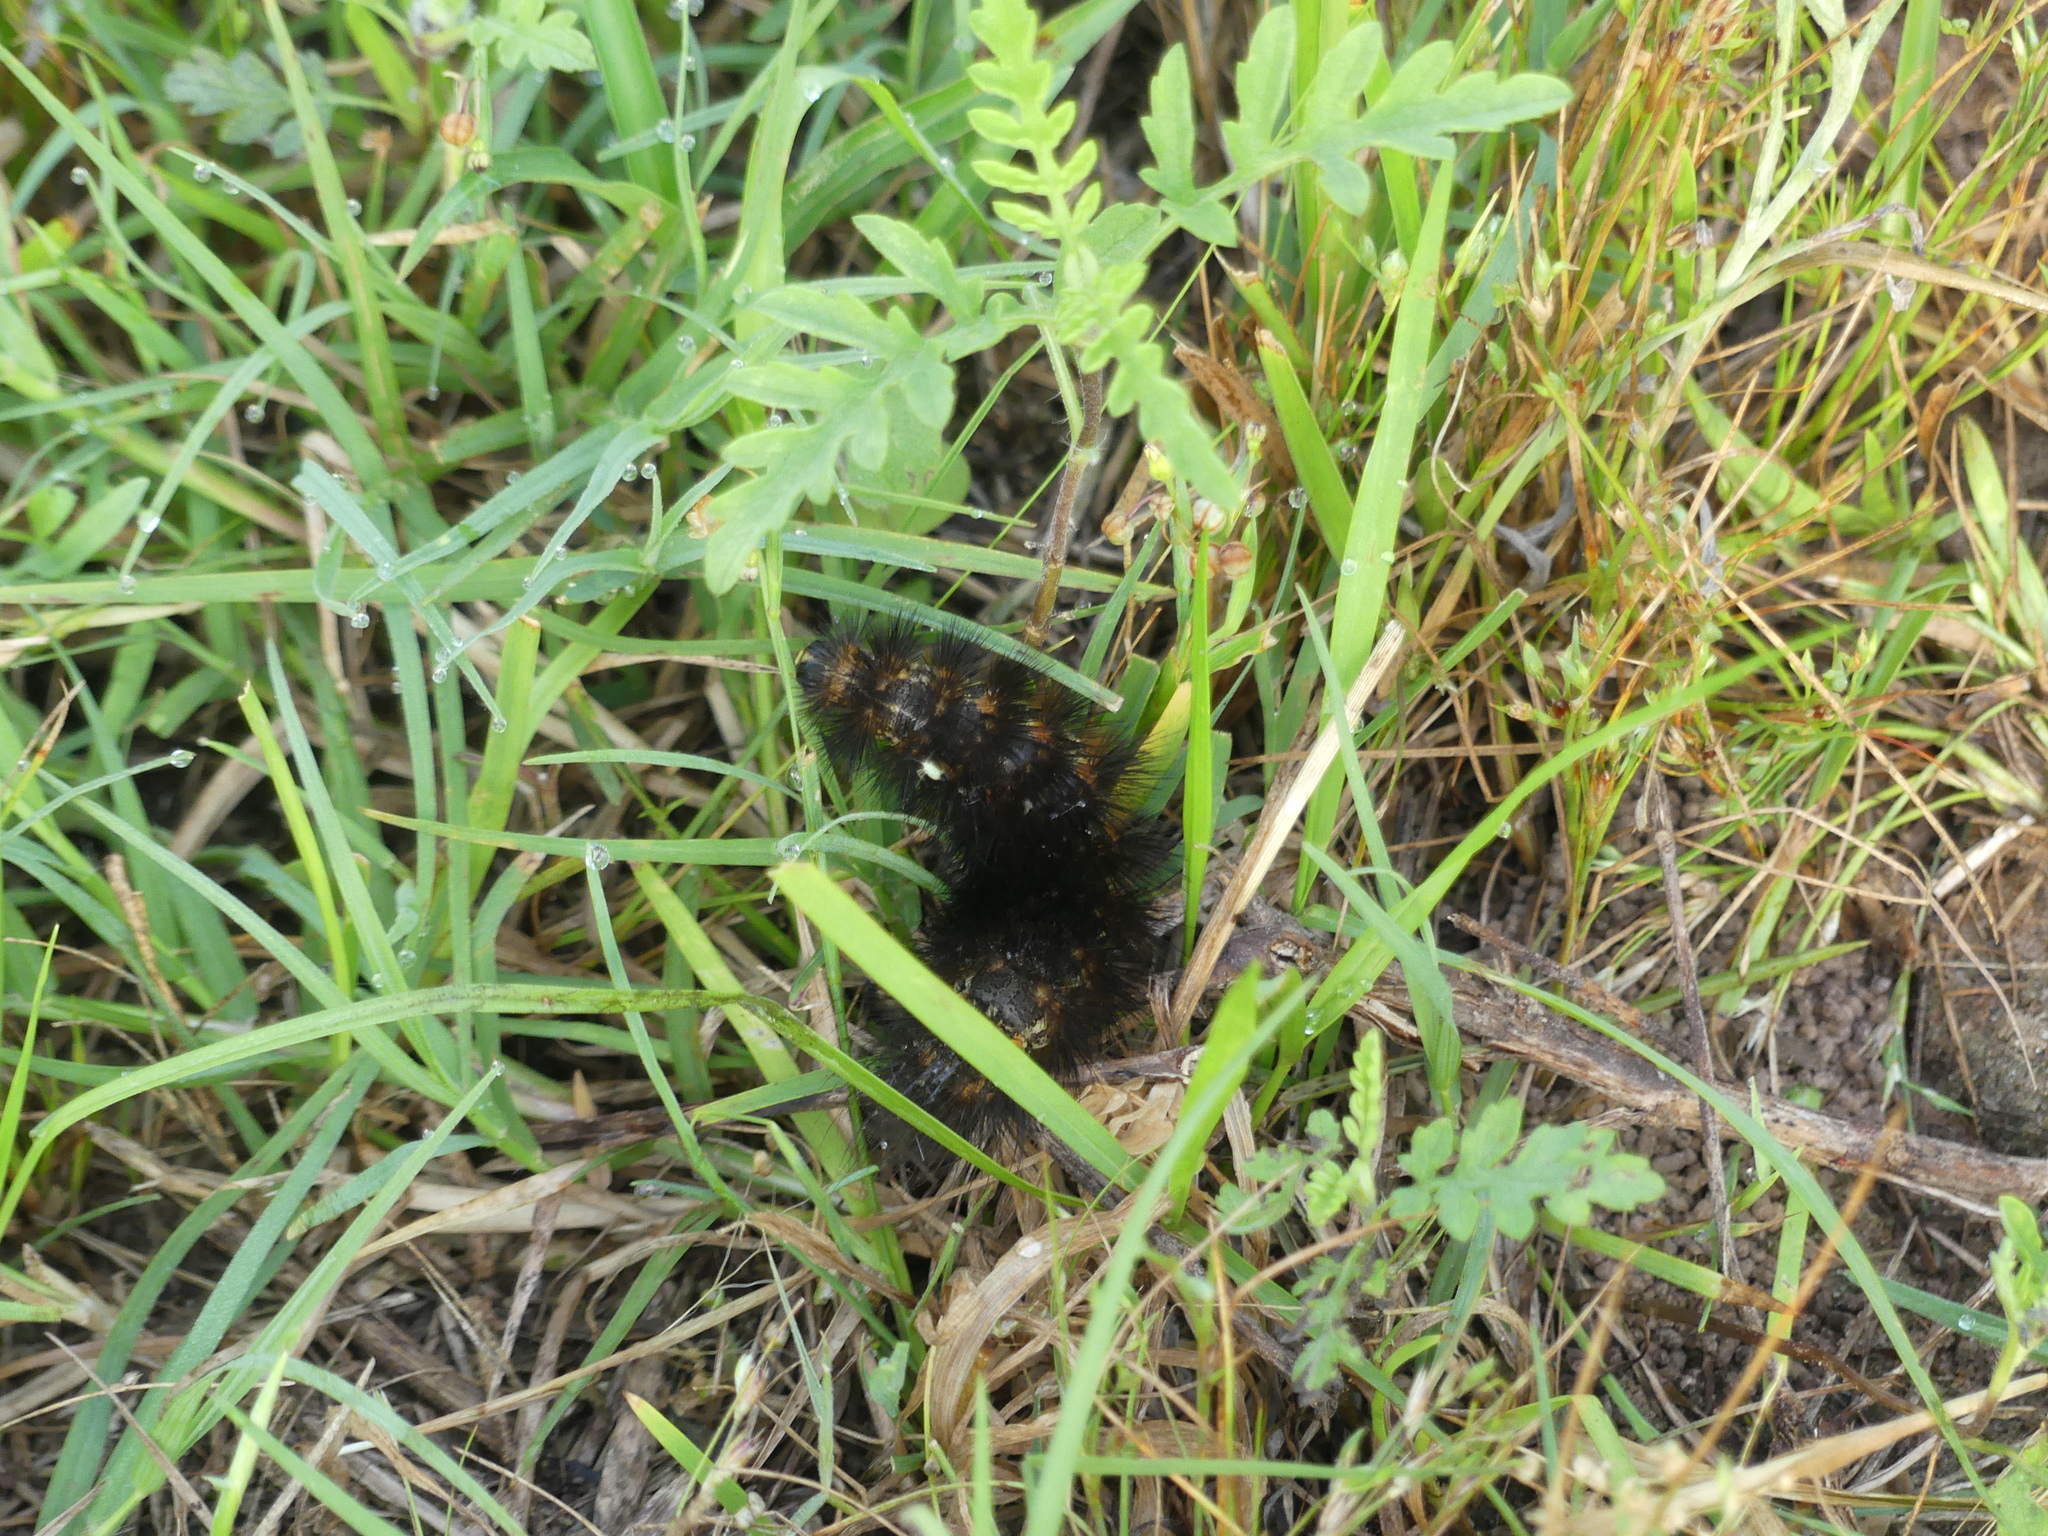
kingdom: Animalia
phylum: Arthropoda
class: Insecta
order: Lepidoptera
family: Erebidae
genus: Estigmene
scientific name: Estigmene acrea
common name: Salt marsh moth
